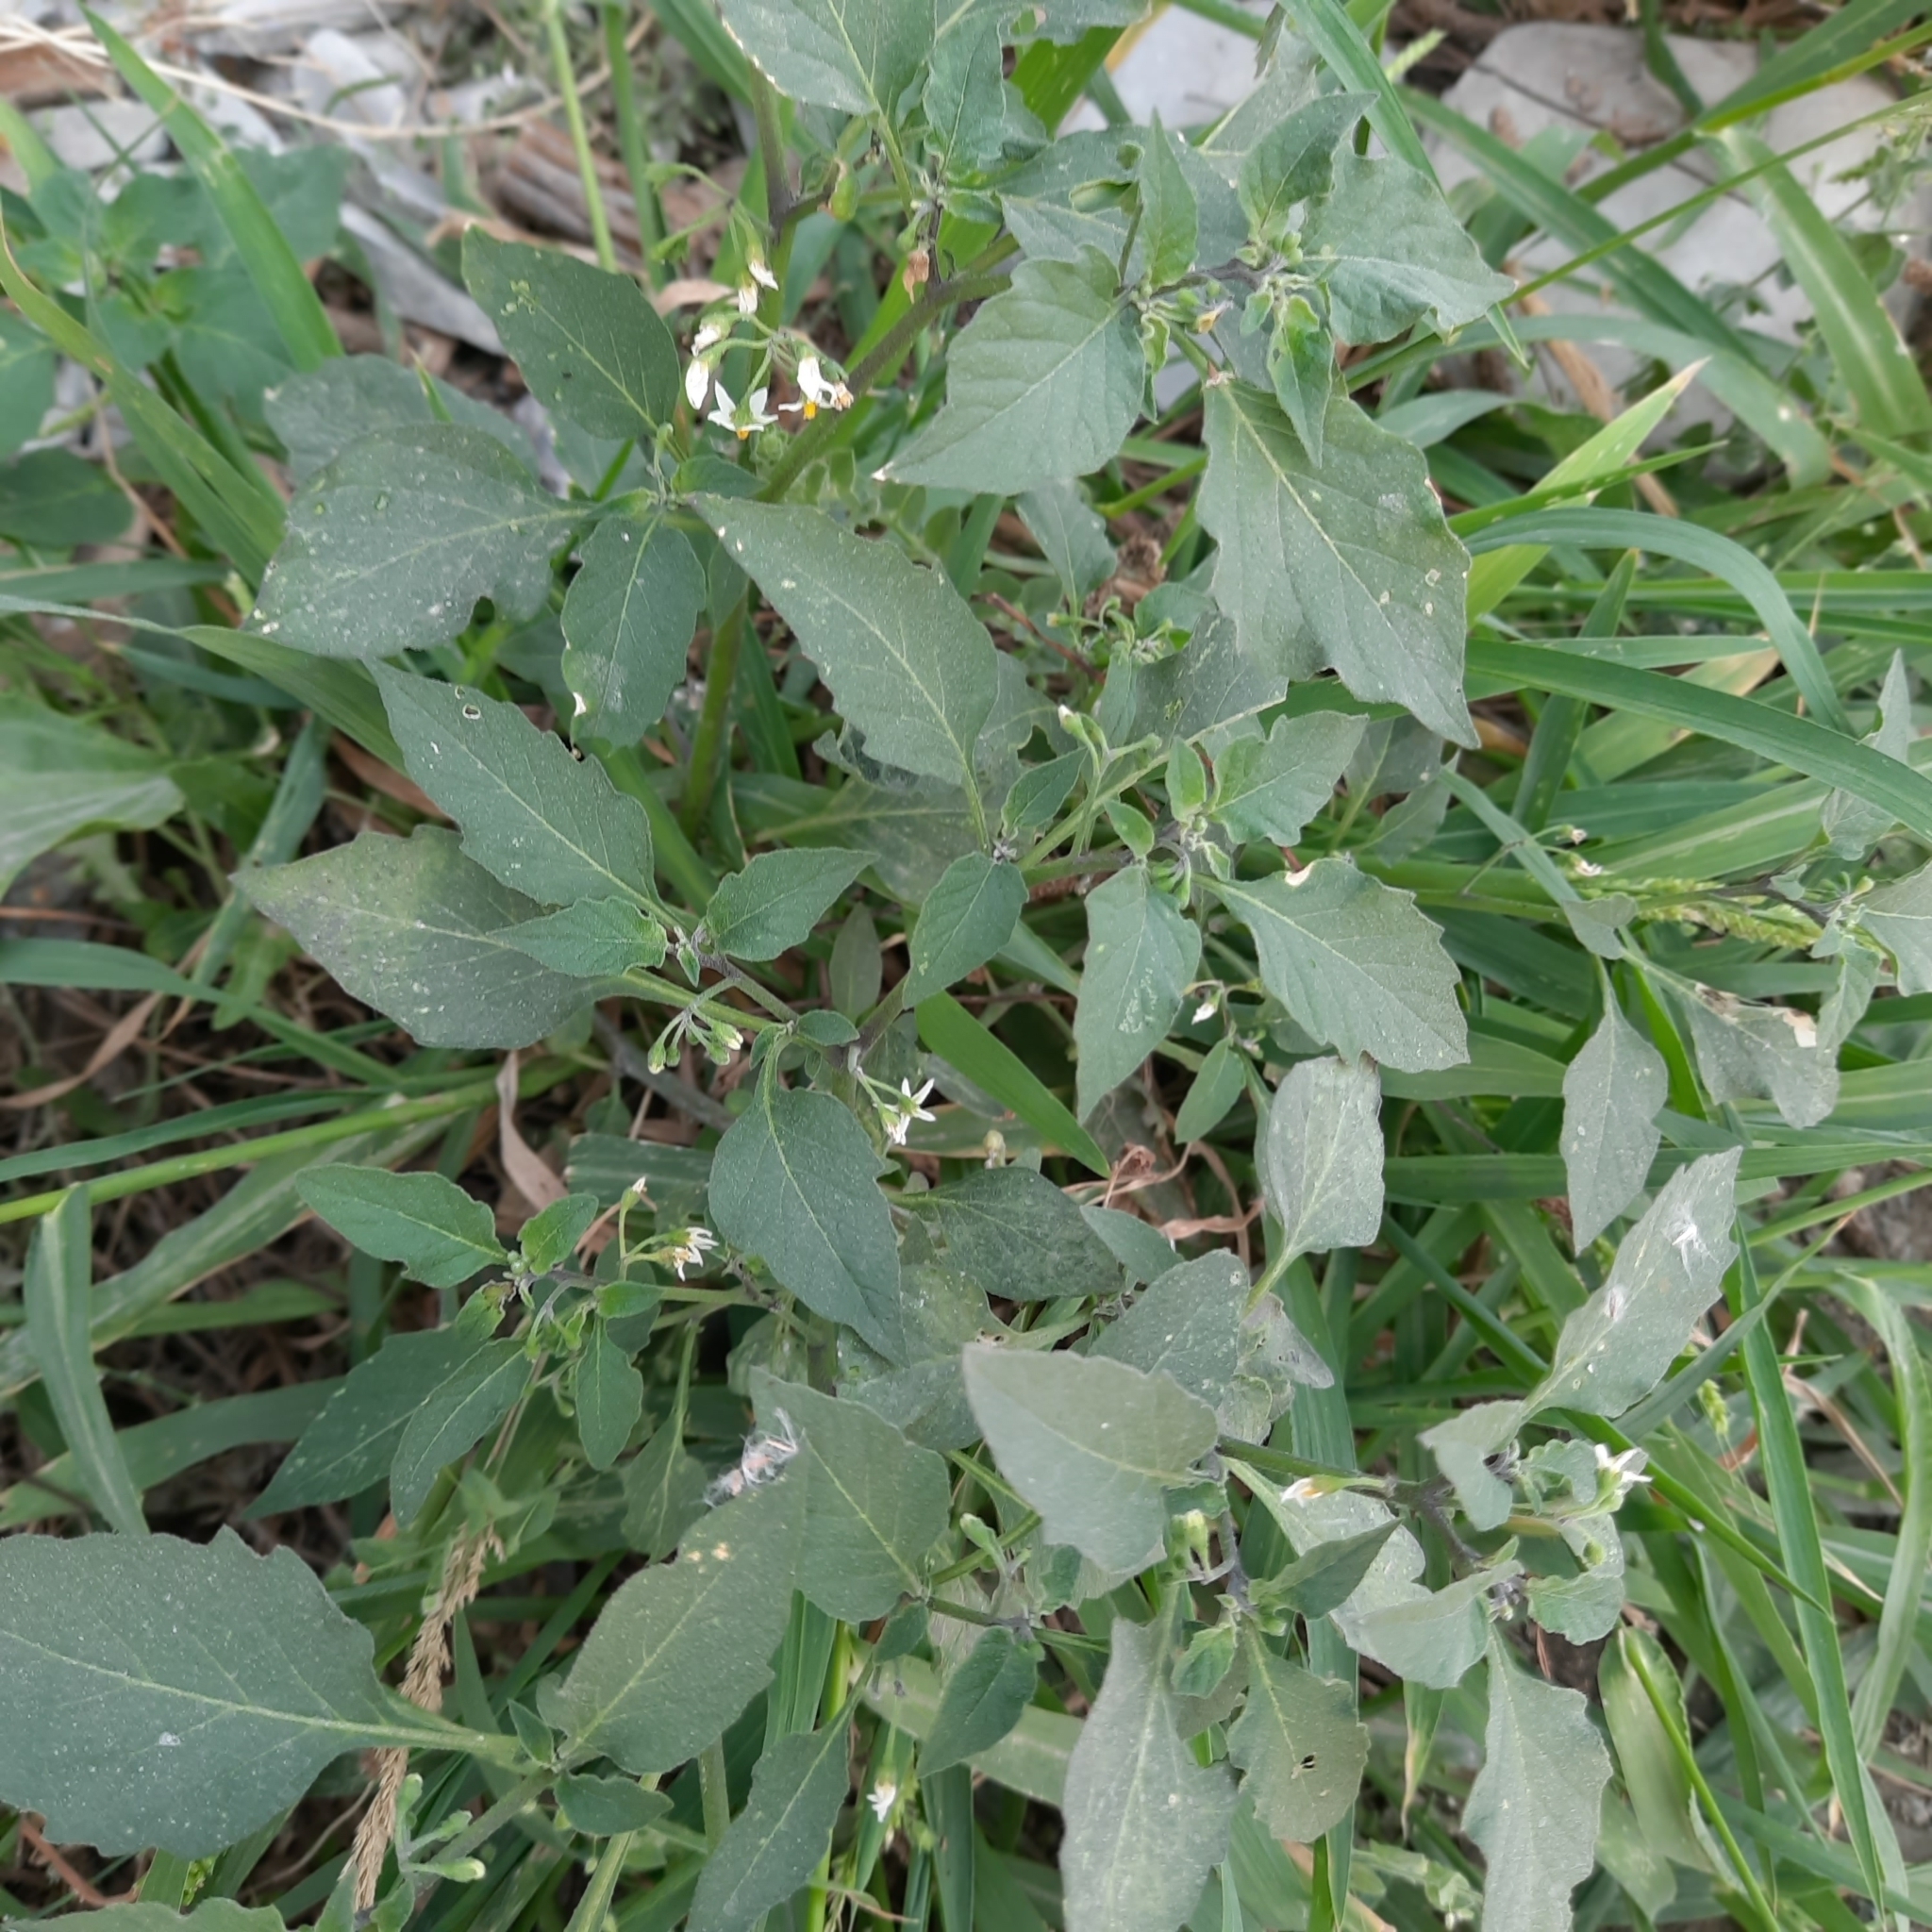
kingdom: Plantae
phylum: Tracheophyta
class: Magnoliopsida
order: Solanales
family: Solanaceae
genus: Solanum
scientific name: Solanum nigrum
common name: Black nightshade
